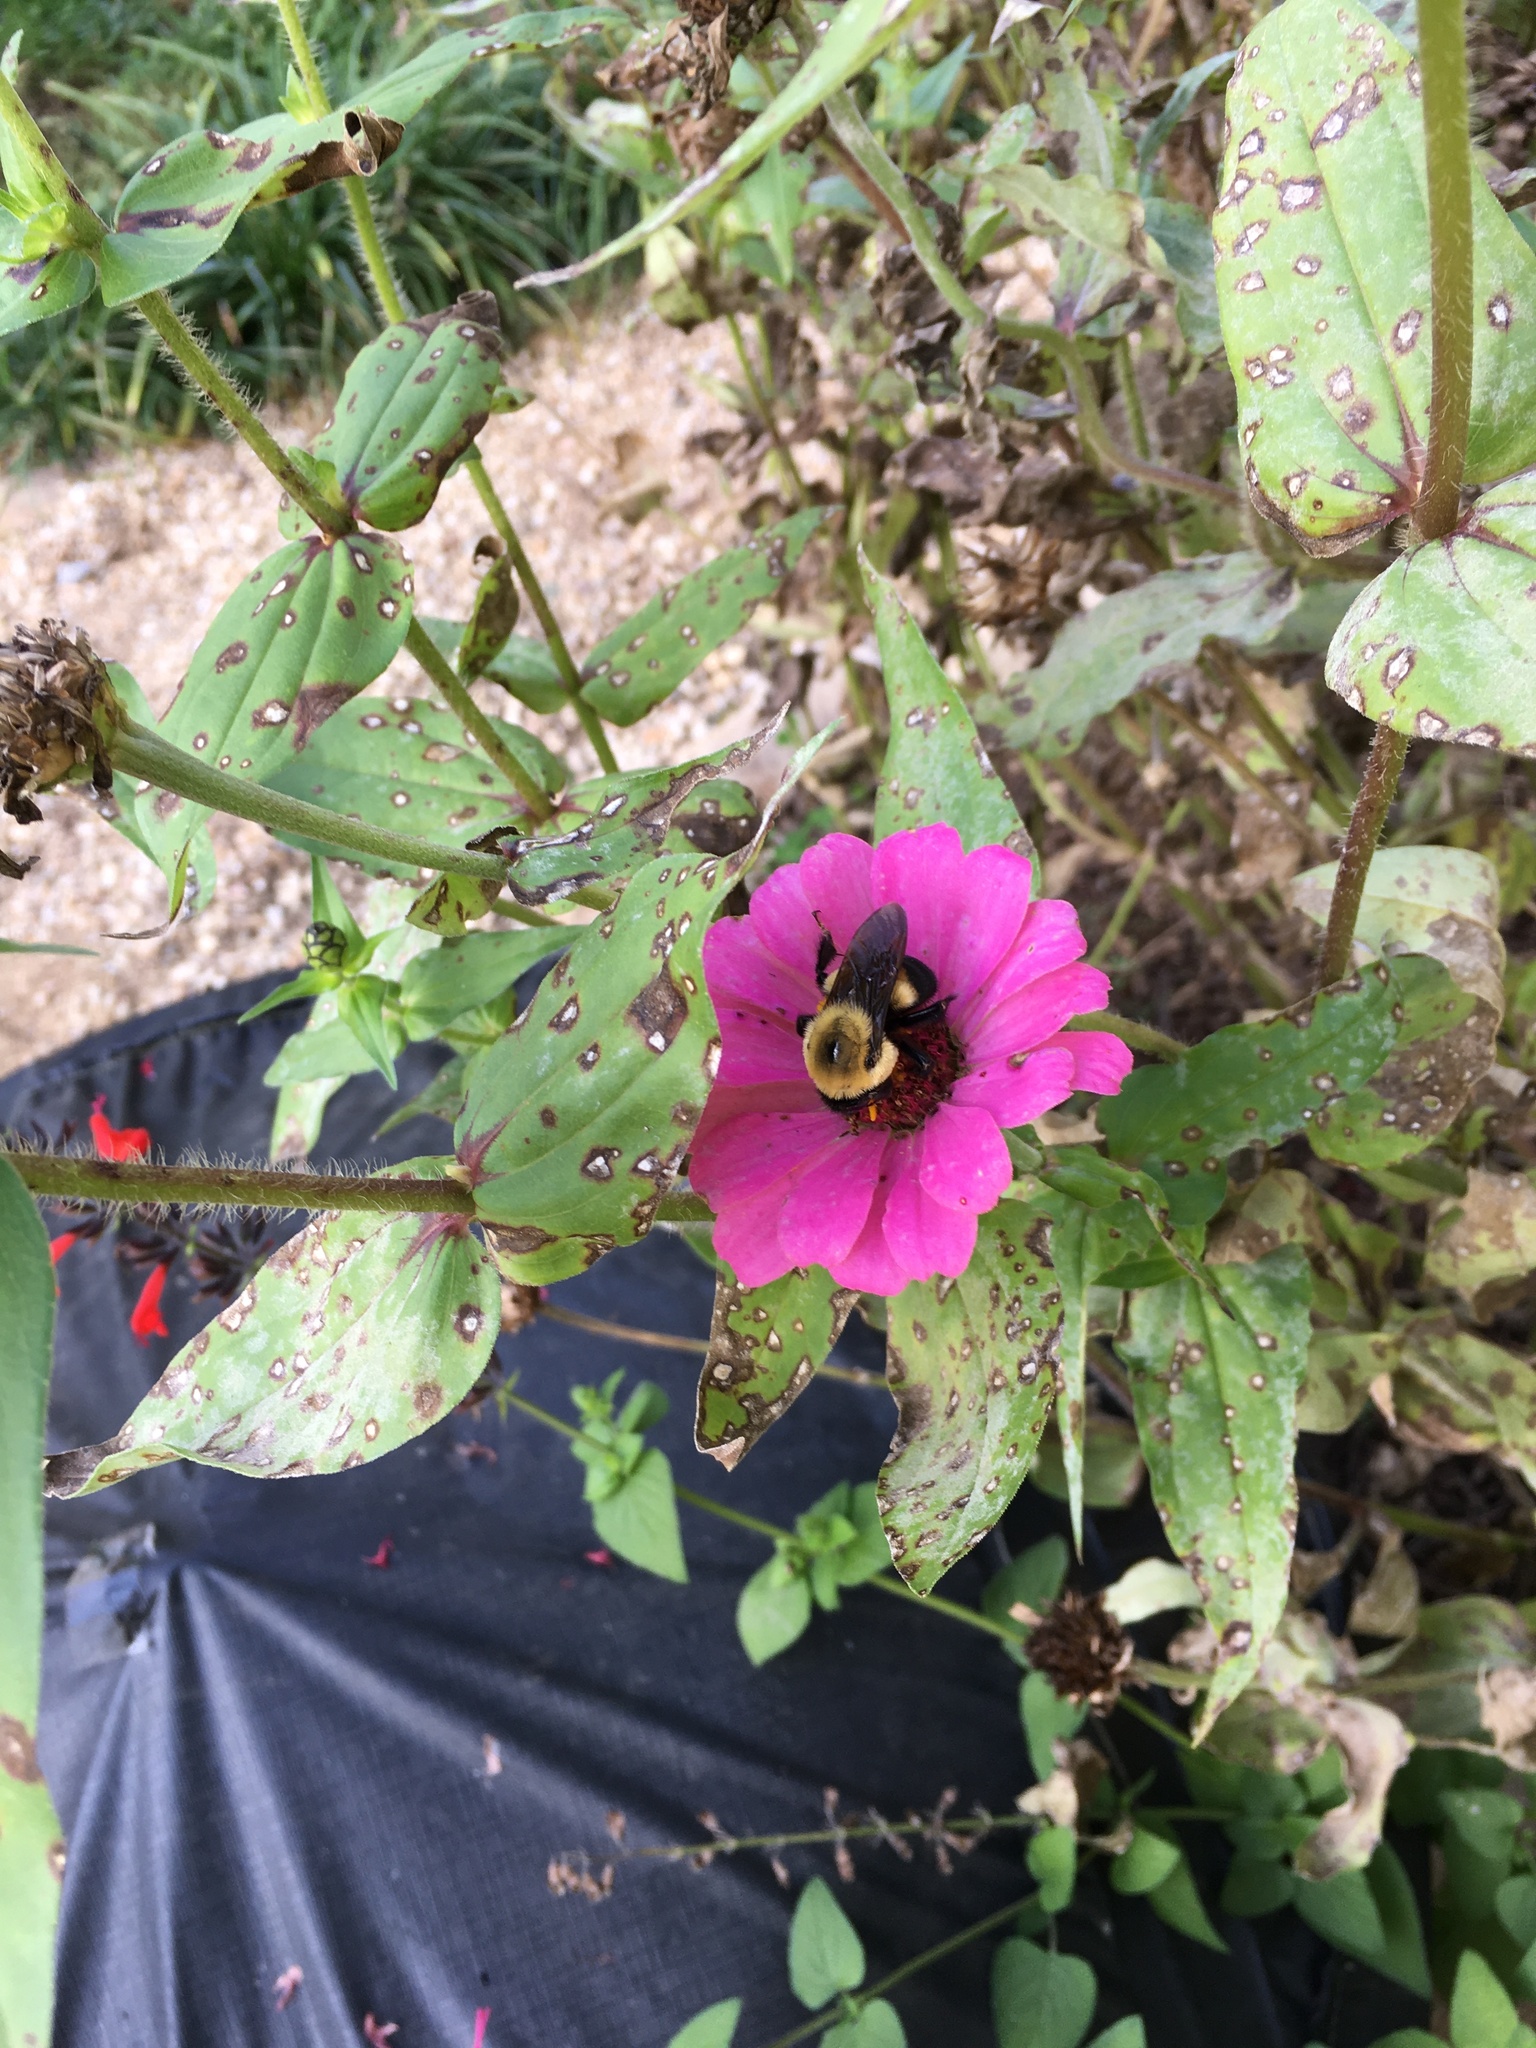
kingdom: Animalia
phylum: Arthropoda
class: Insecta
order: Hymenoptera
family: Apidae
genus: Bombus
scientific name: Bombus griseocollis
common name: Brown-belted bumble bee
